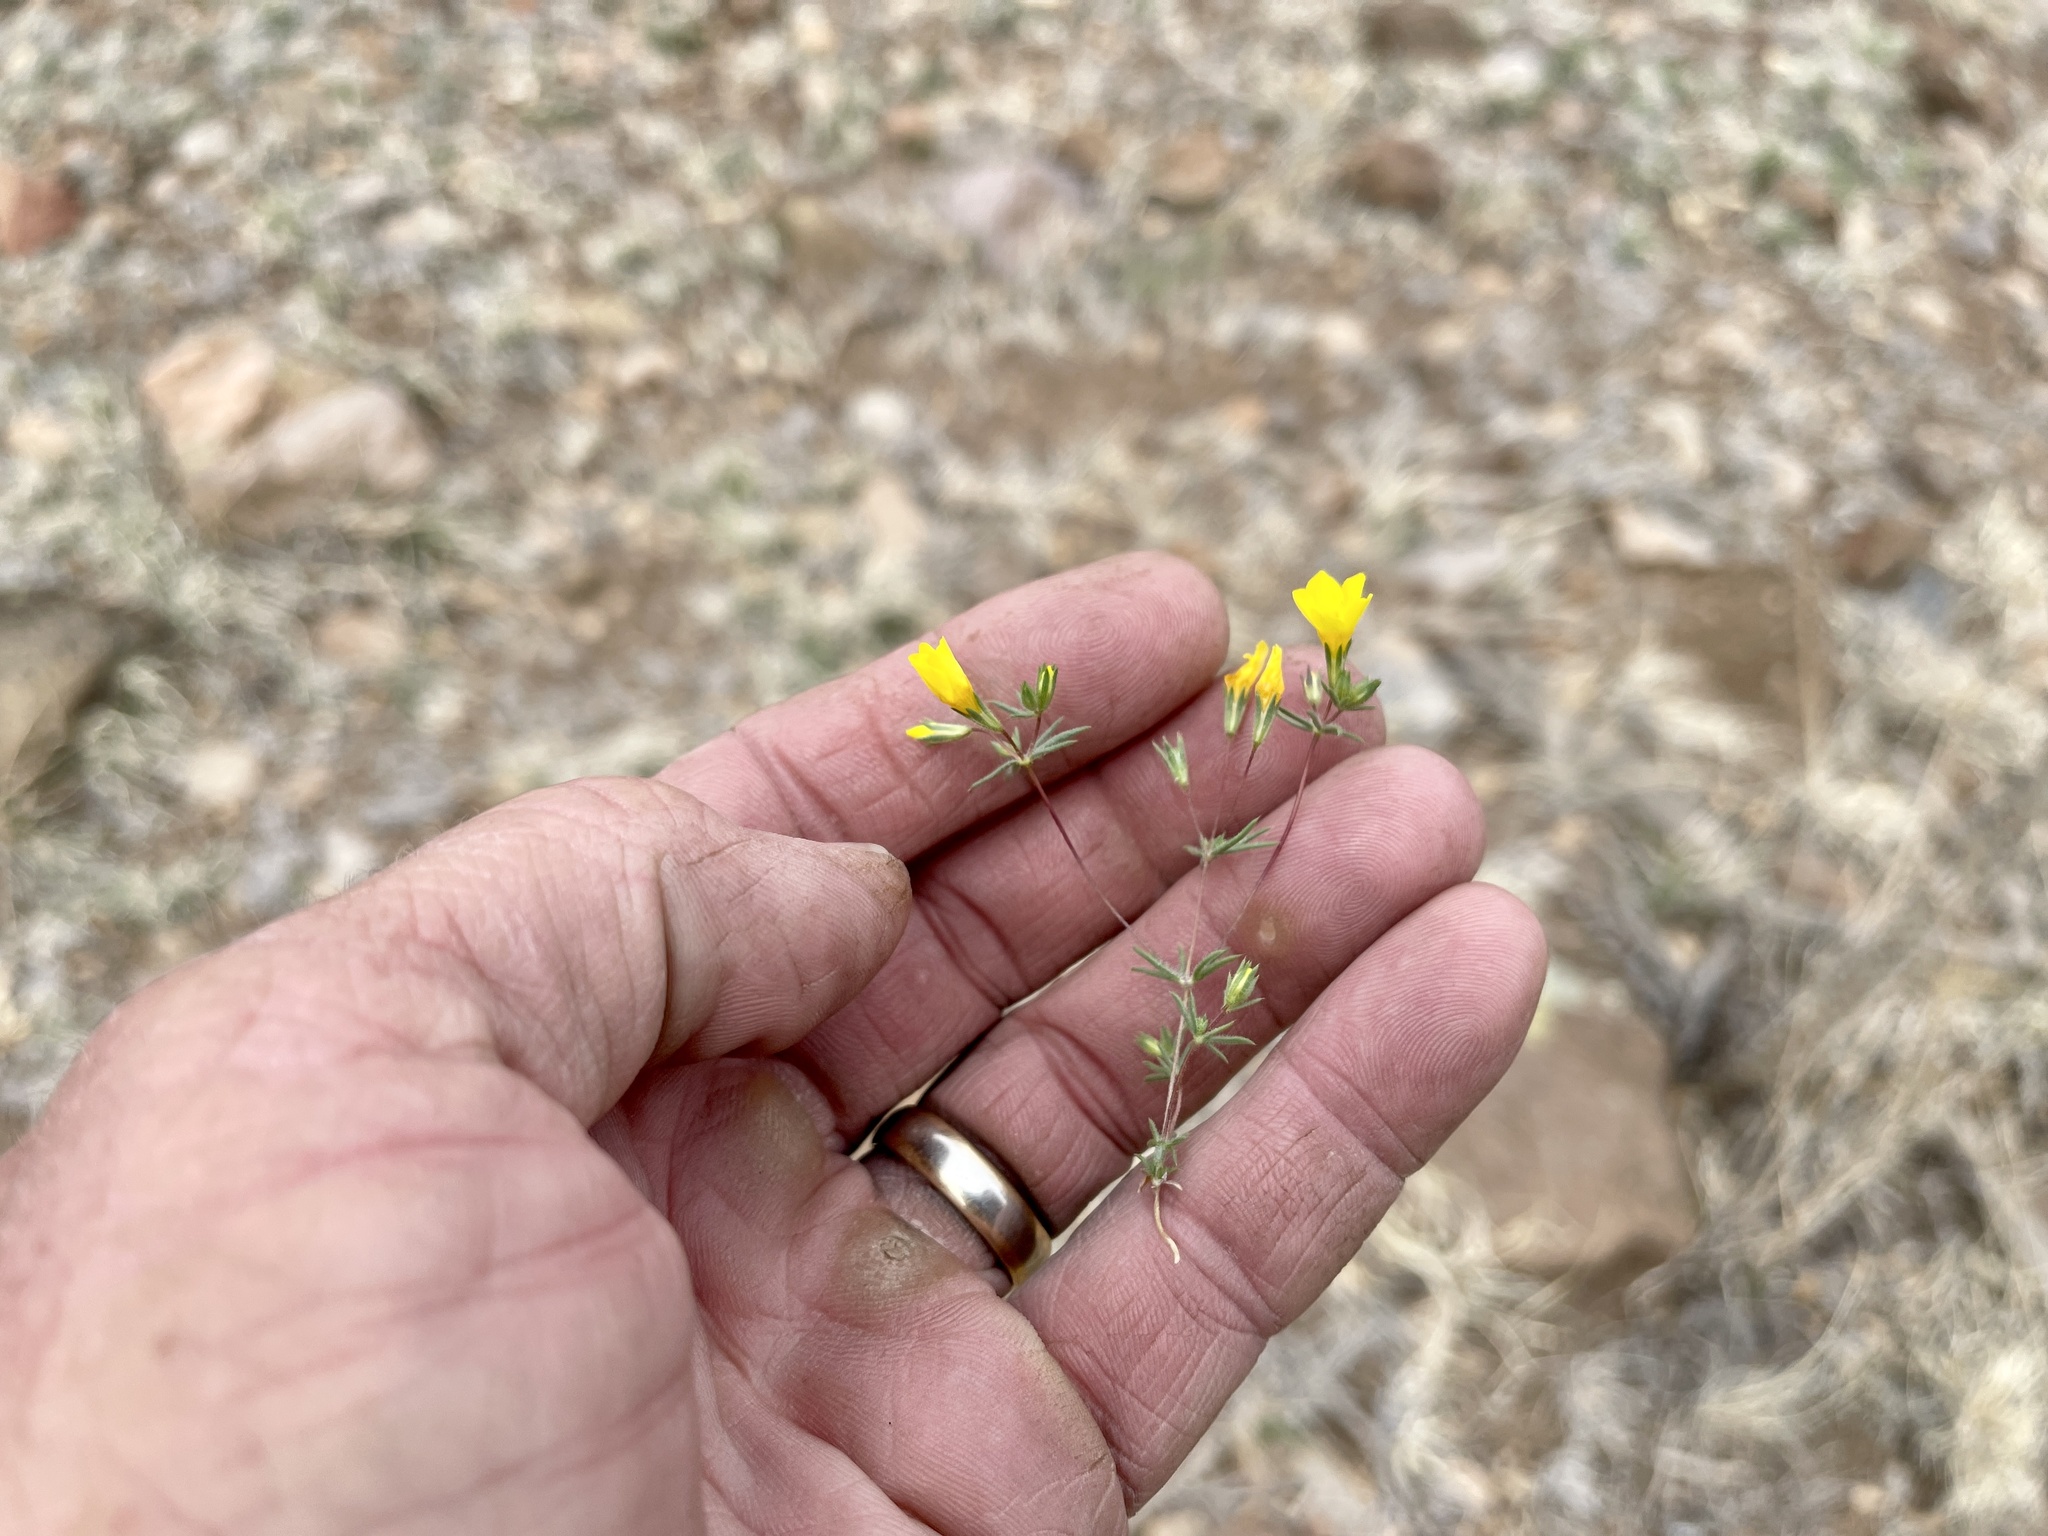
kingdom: Plantae
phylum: Tracheophyta
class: Magnoliopsida
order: Ericales
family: Polemoniaceae
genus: Leptosiphon
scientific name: Leptosiphon chrysanthus
